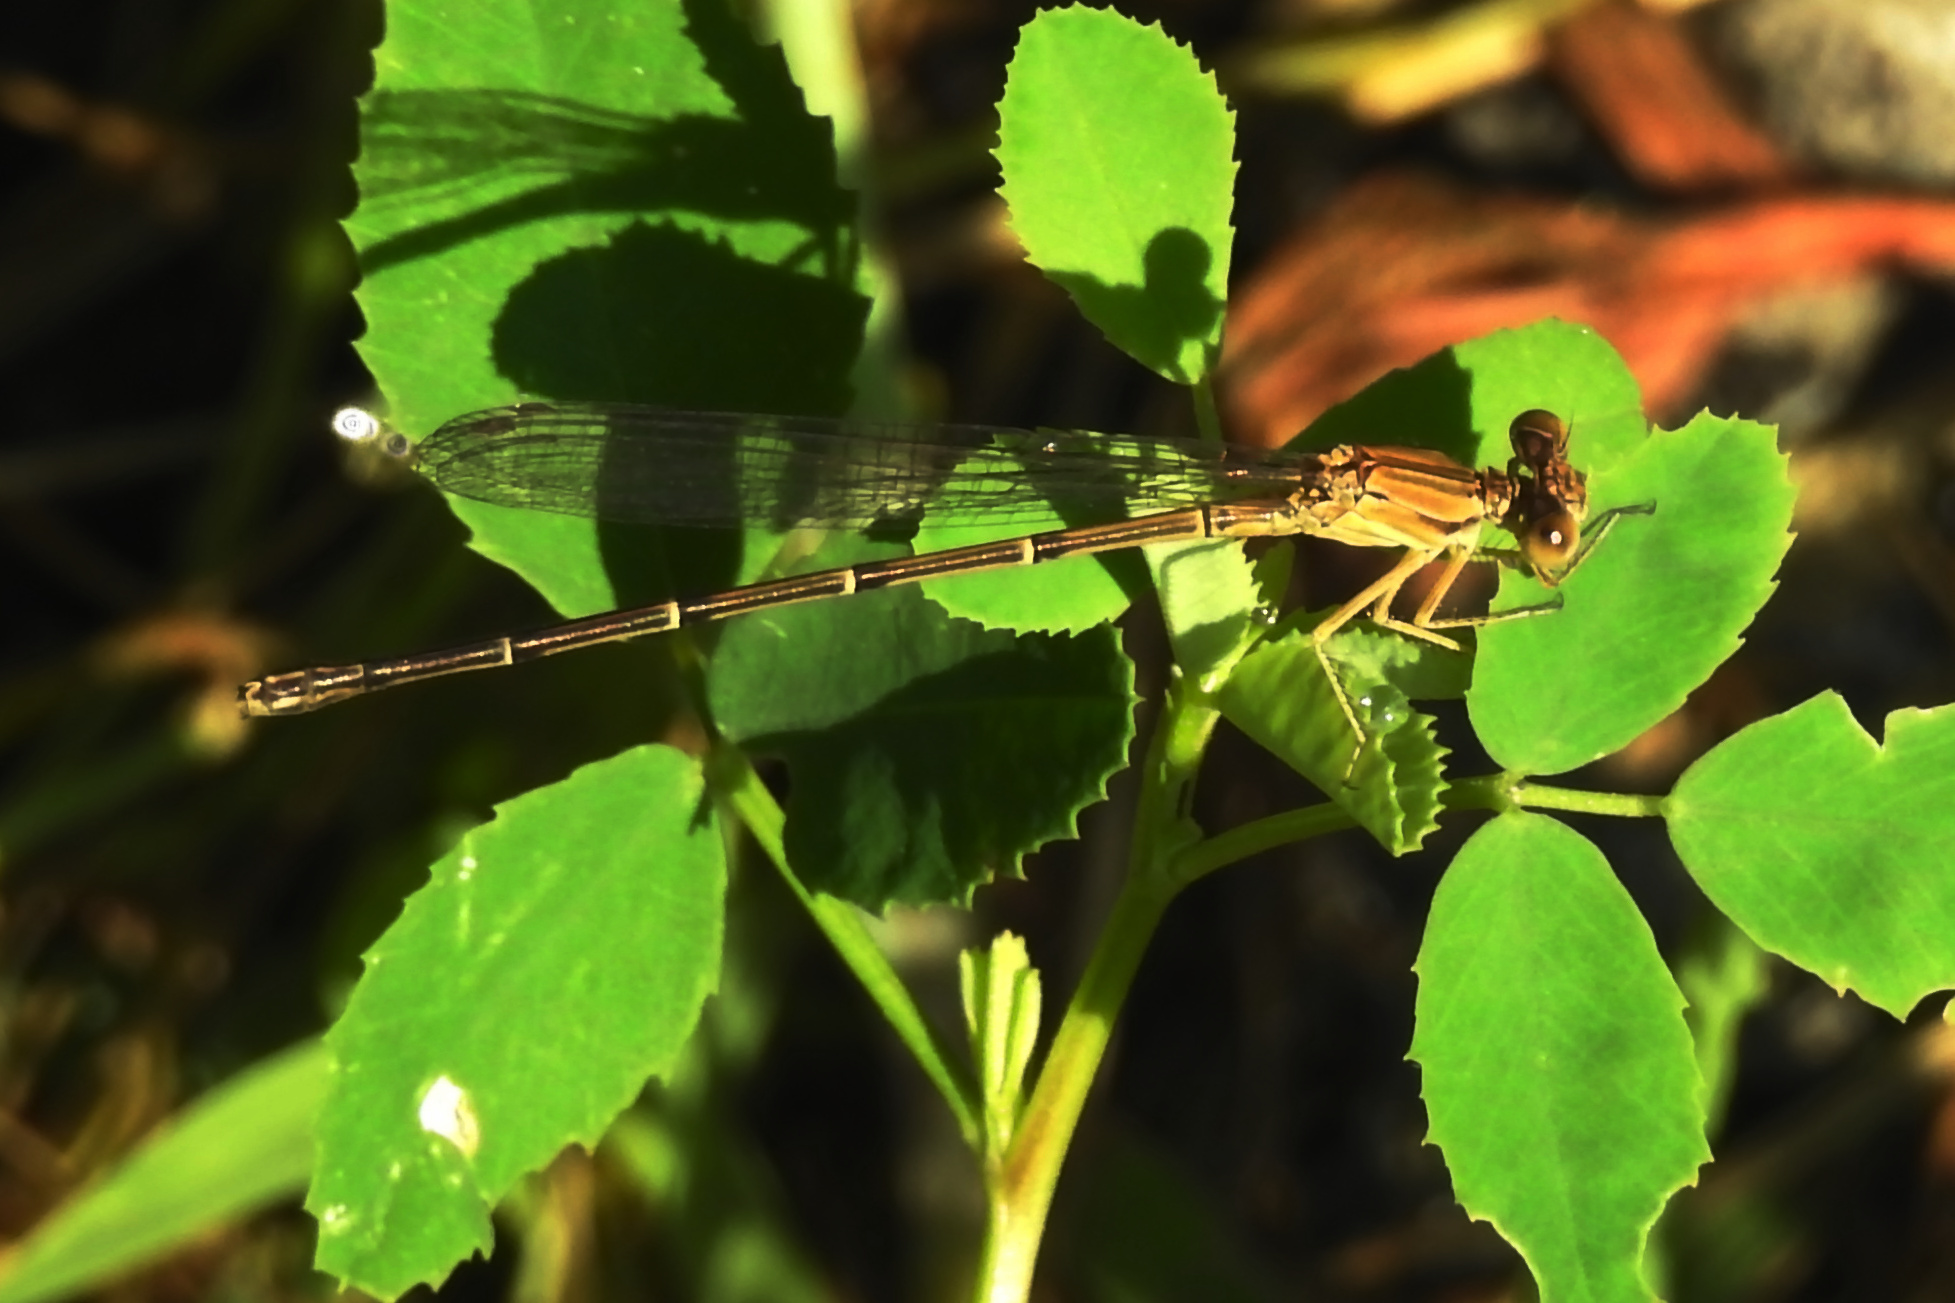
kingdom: Animalia
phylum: Arthropoda
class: Insecta
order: Odonata
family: Coenagrionidae
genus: Argia
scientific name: Argia apicalis
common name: Blue-fronted dancer
